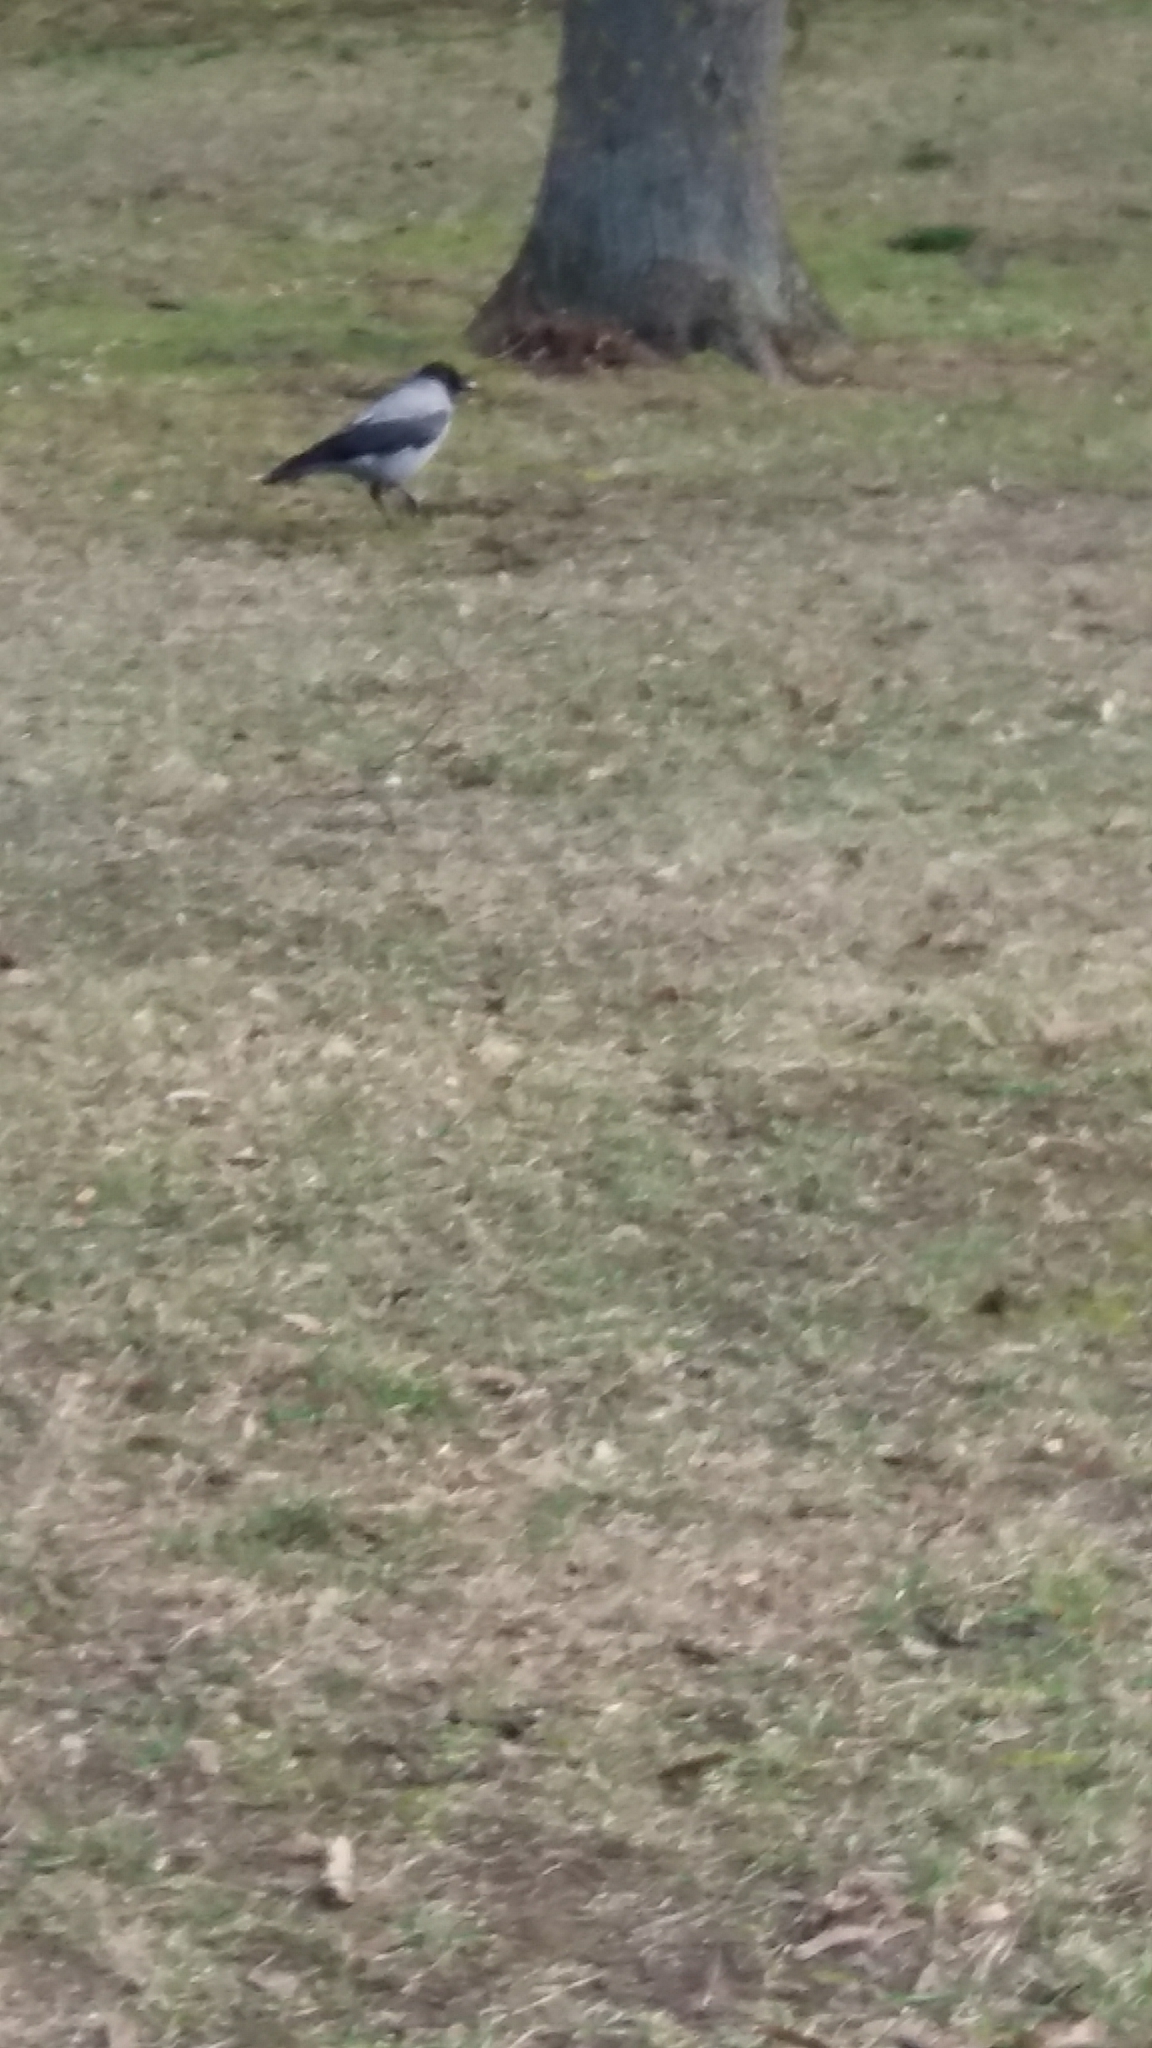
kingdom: Animalia
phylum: Chordata
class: Aves
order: Passeriformes
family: Corvidae
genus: Corvus
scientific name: Corvus cornix
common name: Hooded crow
